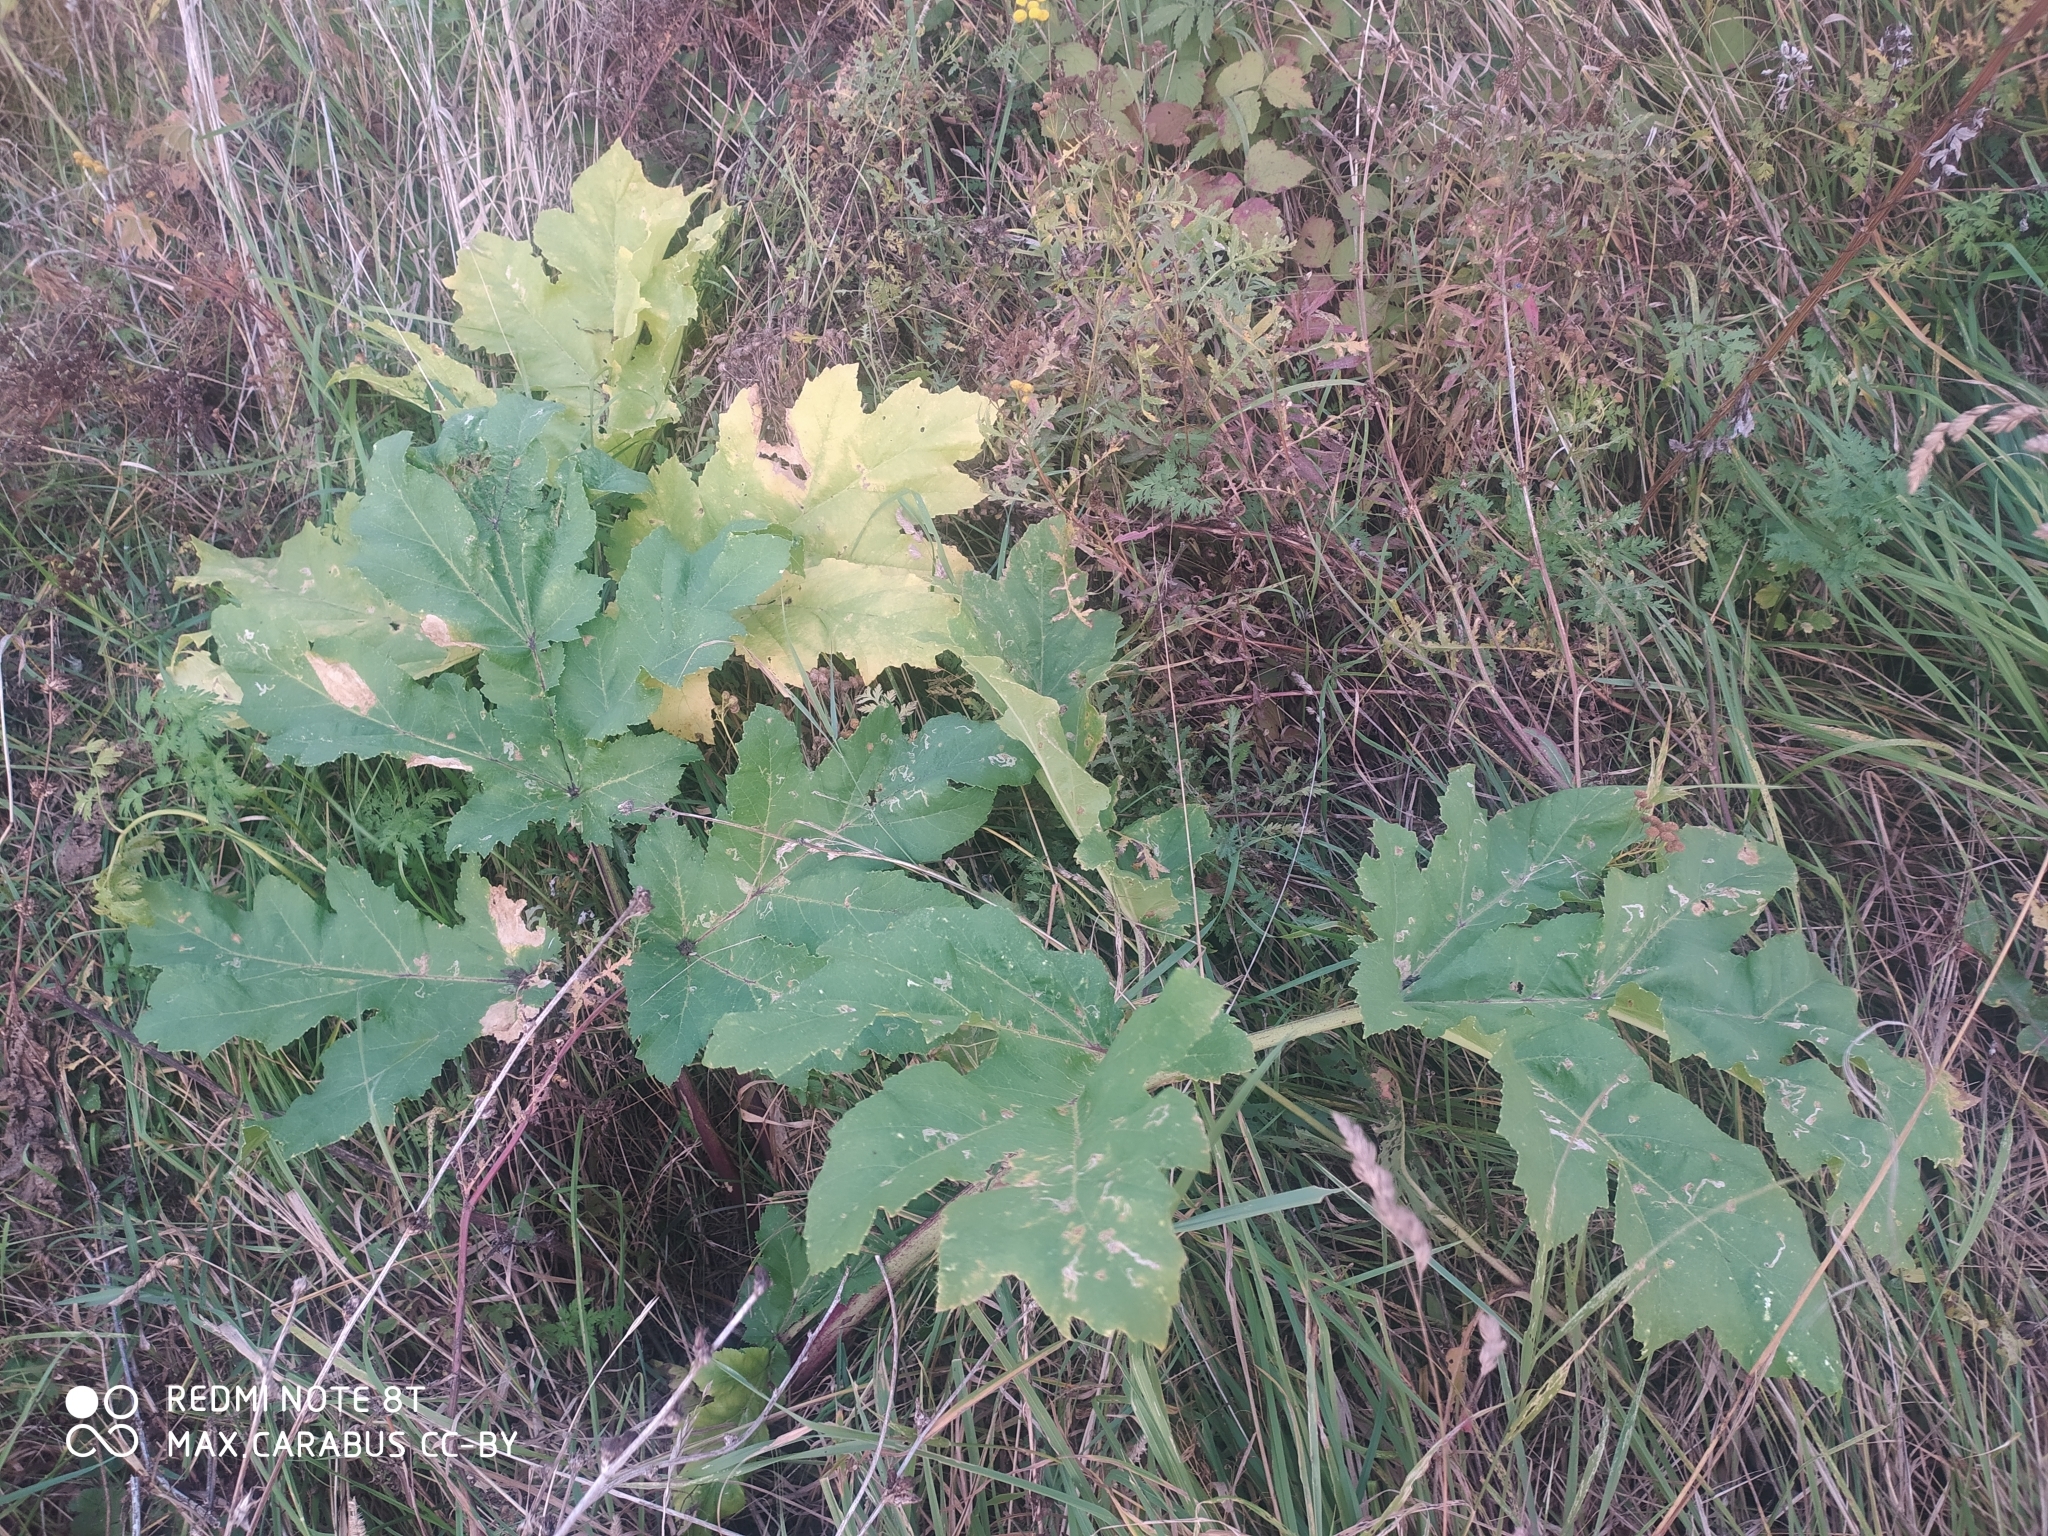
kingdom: Plantae
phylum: Tracheophyta
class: Magnoliopsida
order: Apiales
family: Apiaceae
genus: Heracleum
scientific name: Heracleum sosnowskyi
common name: Sosnowsky's hogweed
